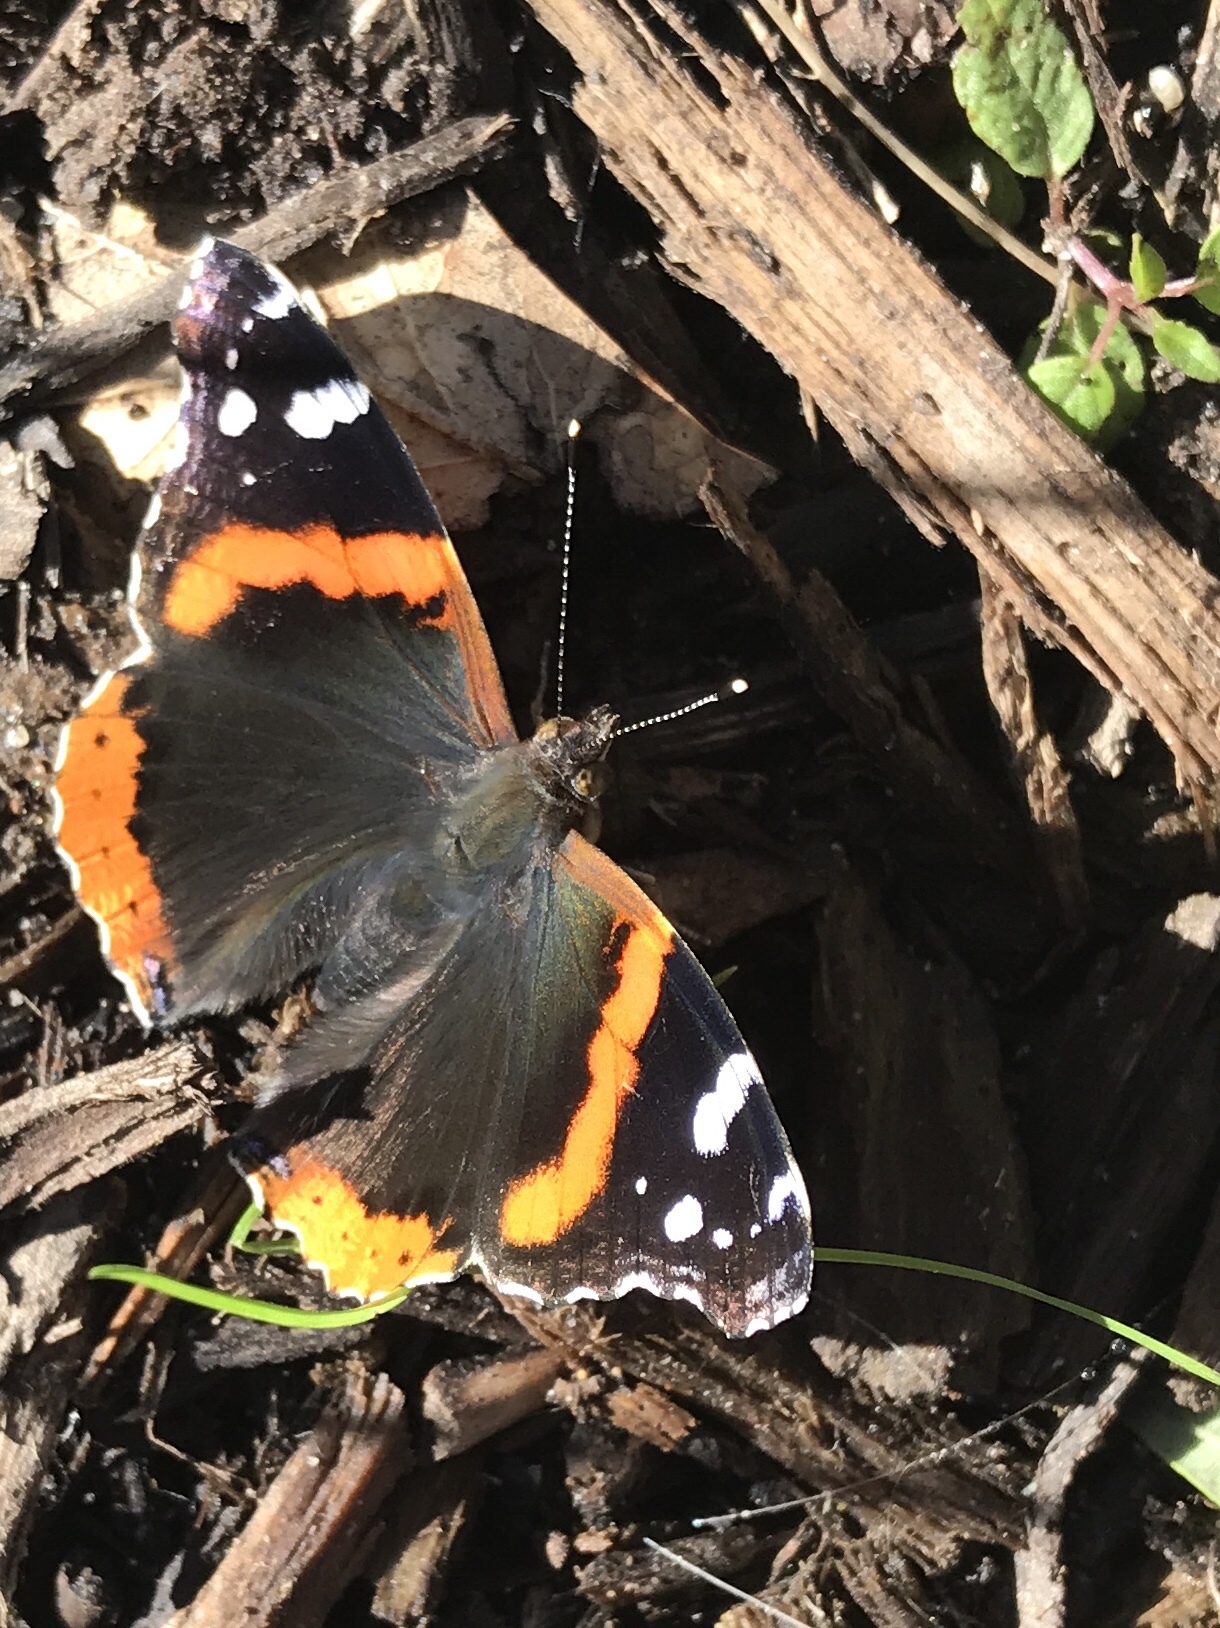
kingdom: Animalia
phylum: Arthropoda
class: Insecta
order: Lepidoptera
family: Nymphalidae
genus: Vanessa
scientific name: Vanessa atalanta
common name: Red admiral
